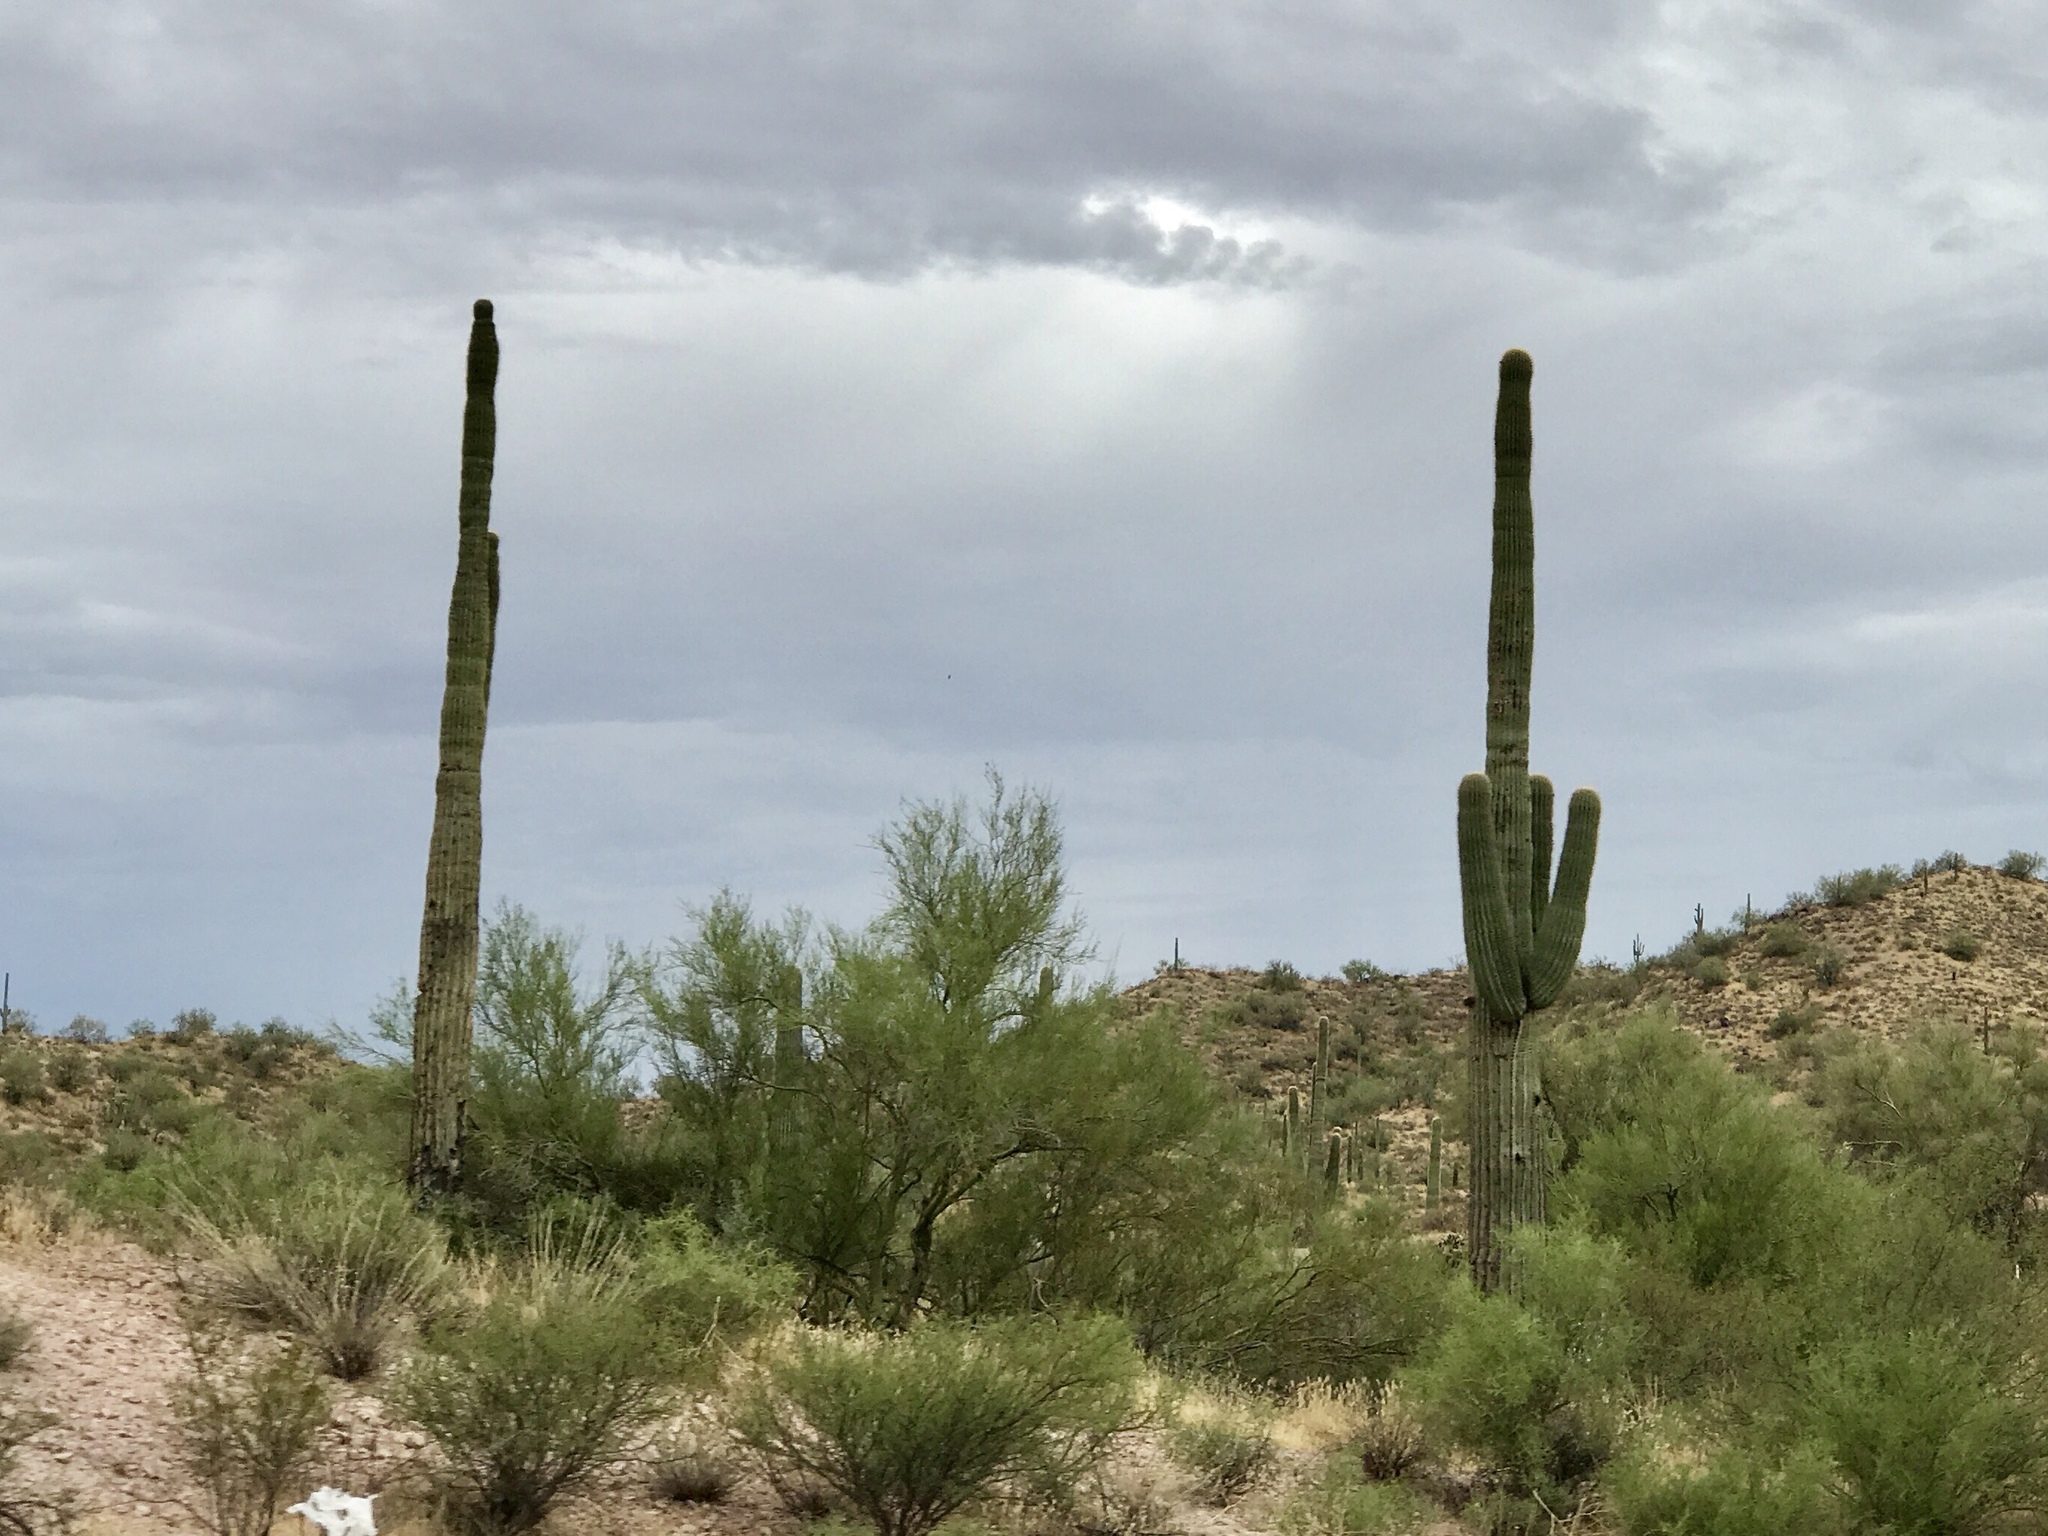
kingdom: Plantae
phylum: Tracheophyta
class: Magnoliopsida
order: Caryophyllales
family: Cactaceae
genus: Carnegiea
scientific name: Carnegiea gigantea
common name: Saguaro
